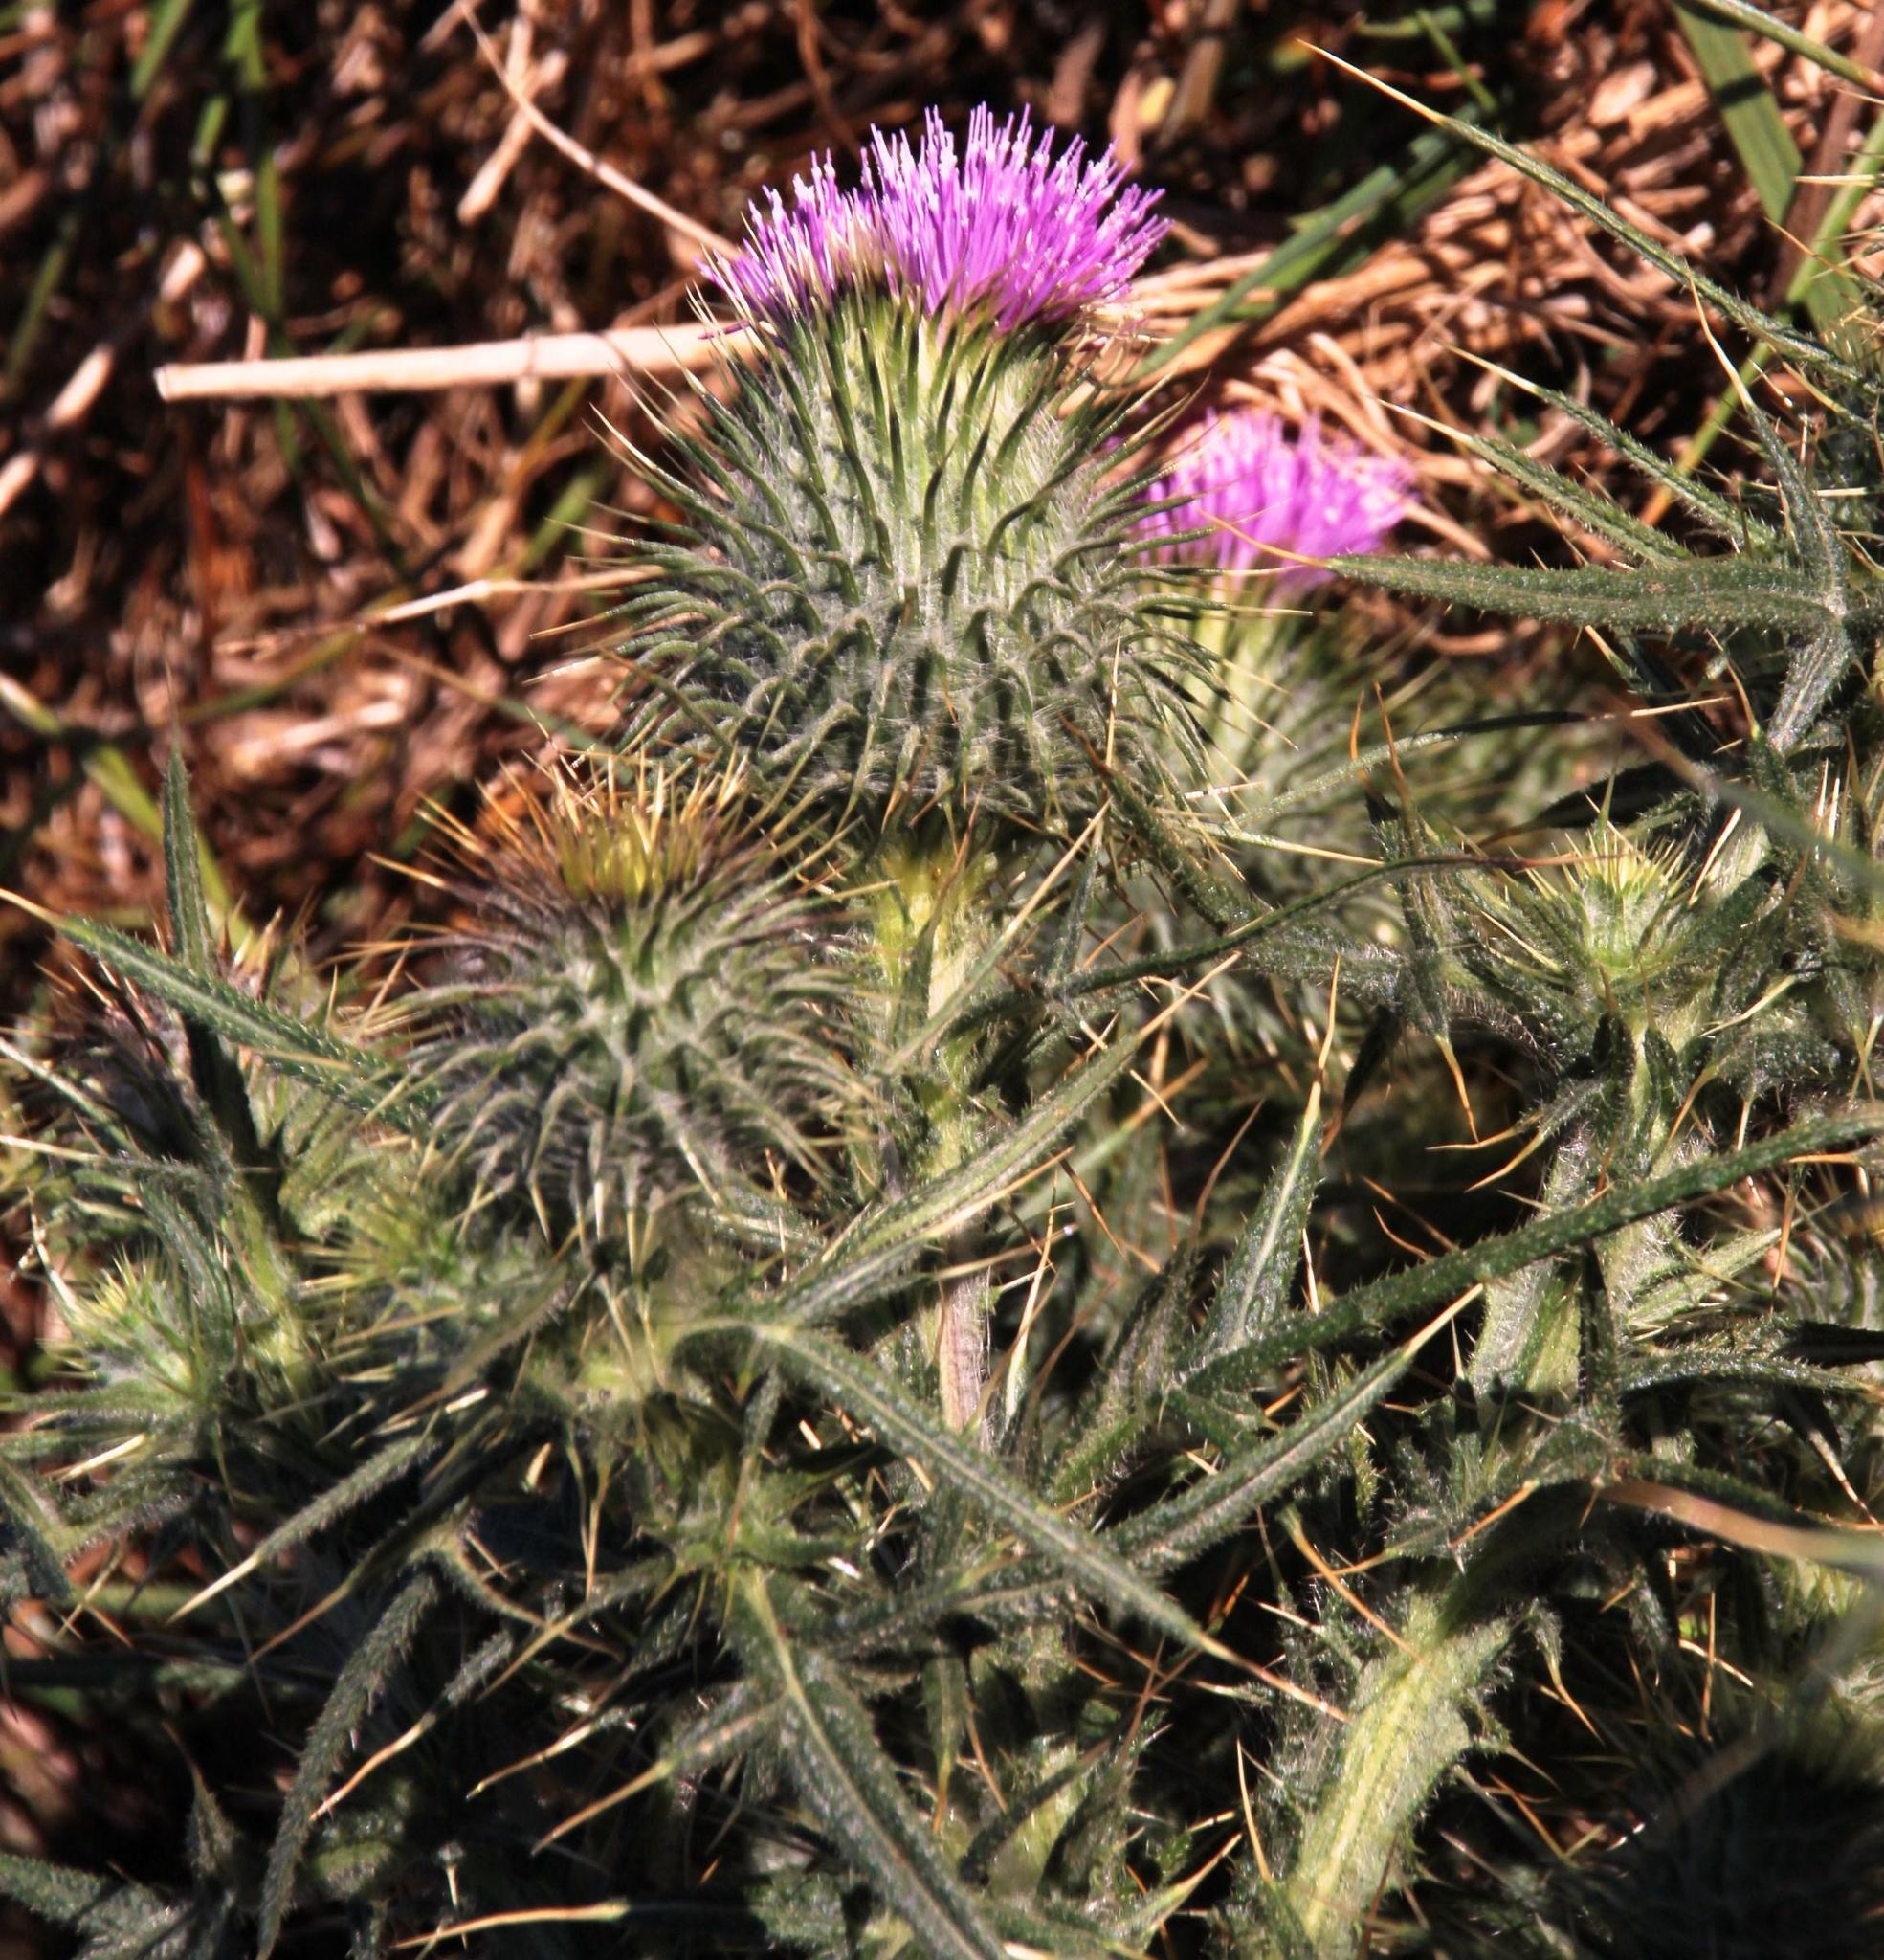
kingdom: Plantae
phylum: Tracheophyta
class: Magnoliopsida
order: Asterales
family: Asteraceae
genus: Cirsium
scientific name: Cirsium vulgare
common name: Bull thistle
